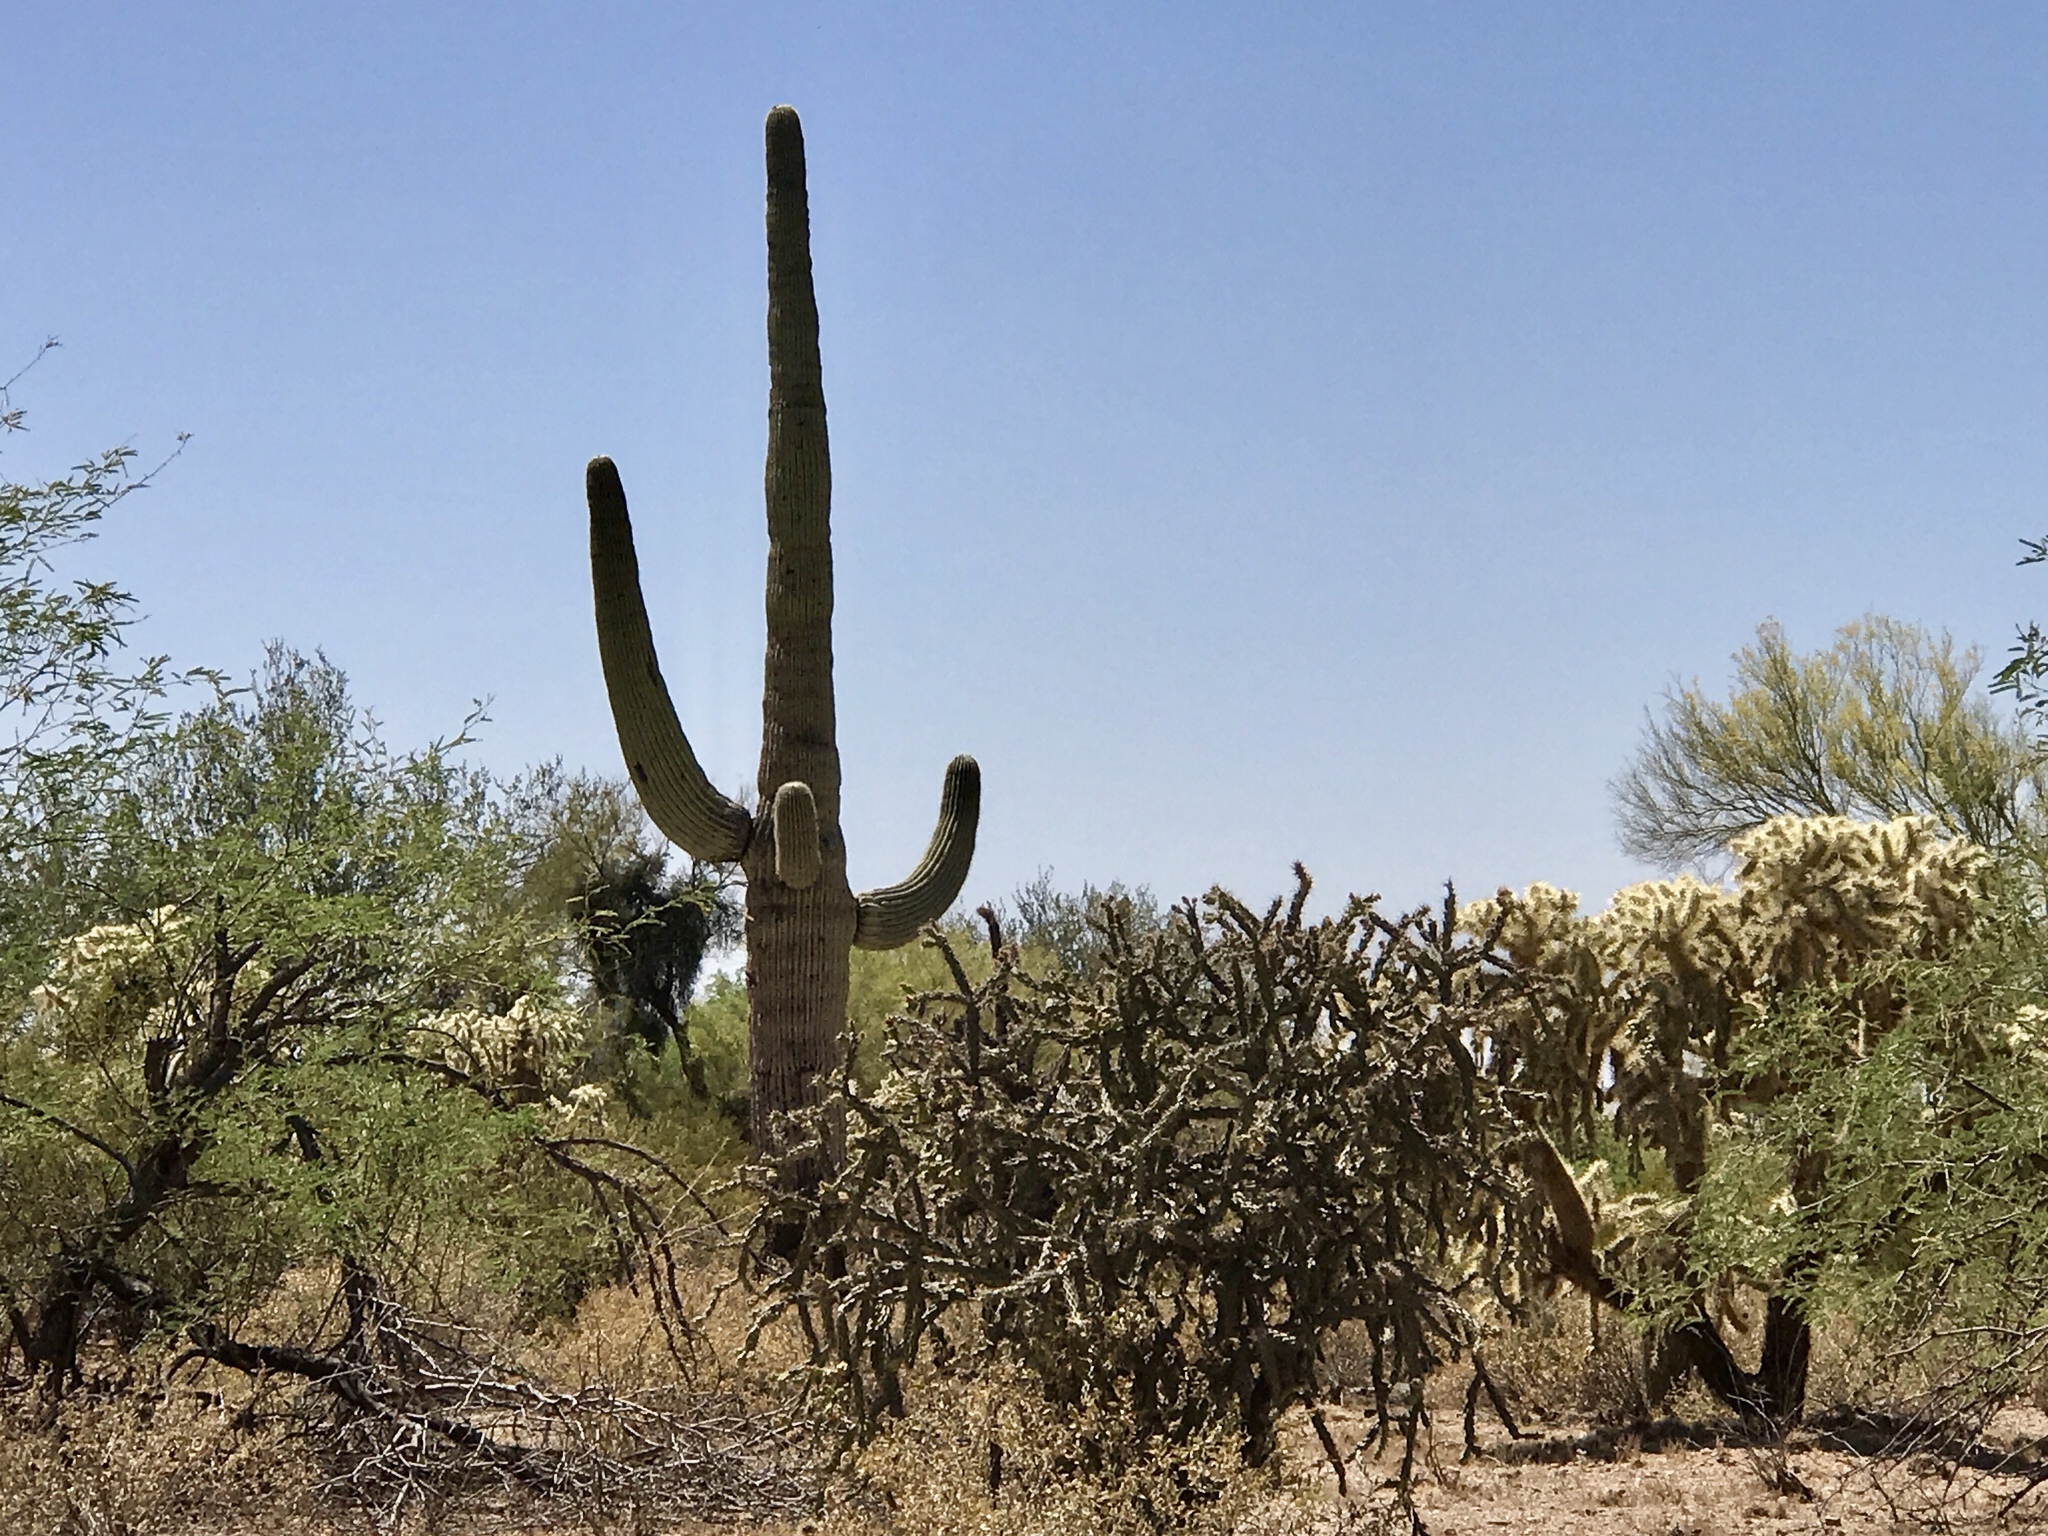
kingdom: Plantae
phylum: Tracheophyta
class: Magnoliopsida
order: Caryophyllales
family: Cactaceae
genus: Carnegiea
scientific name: Carnegiea gigantea
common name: Saguaro
